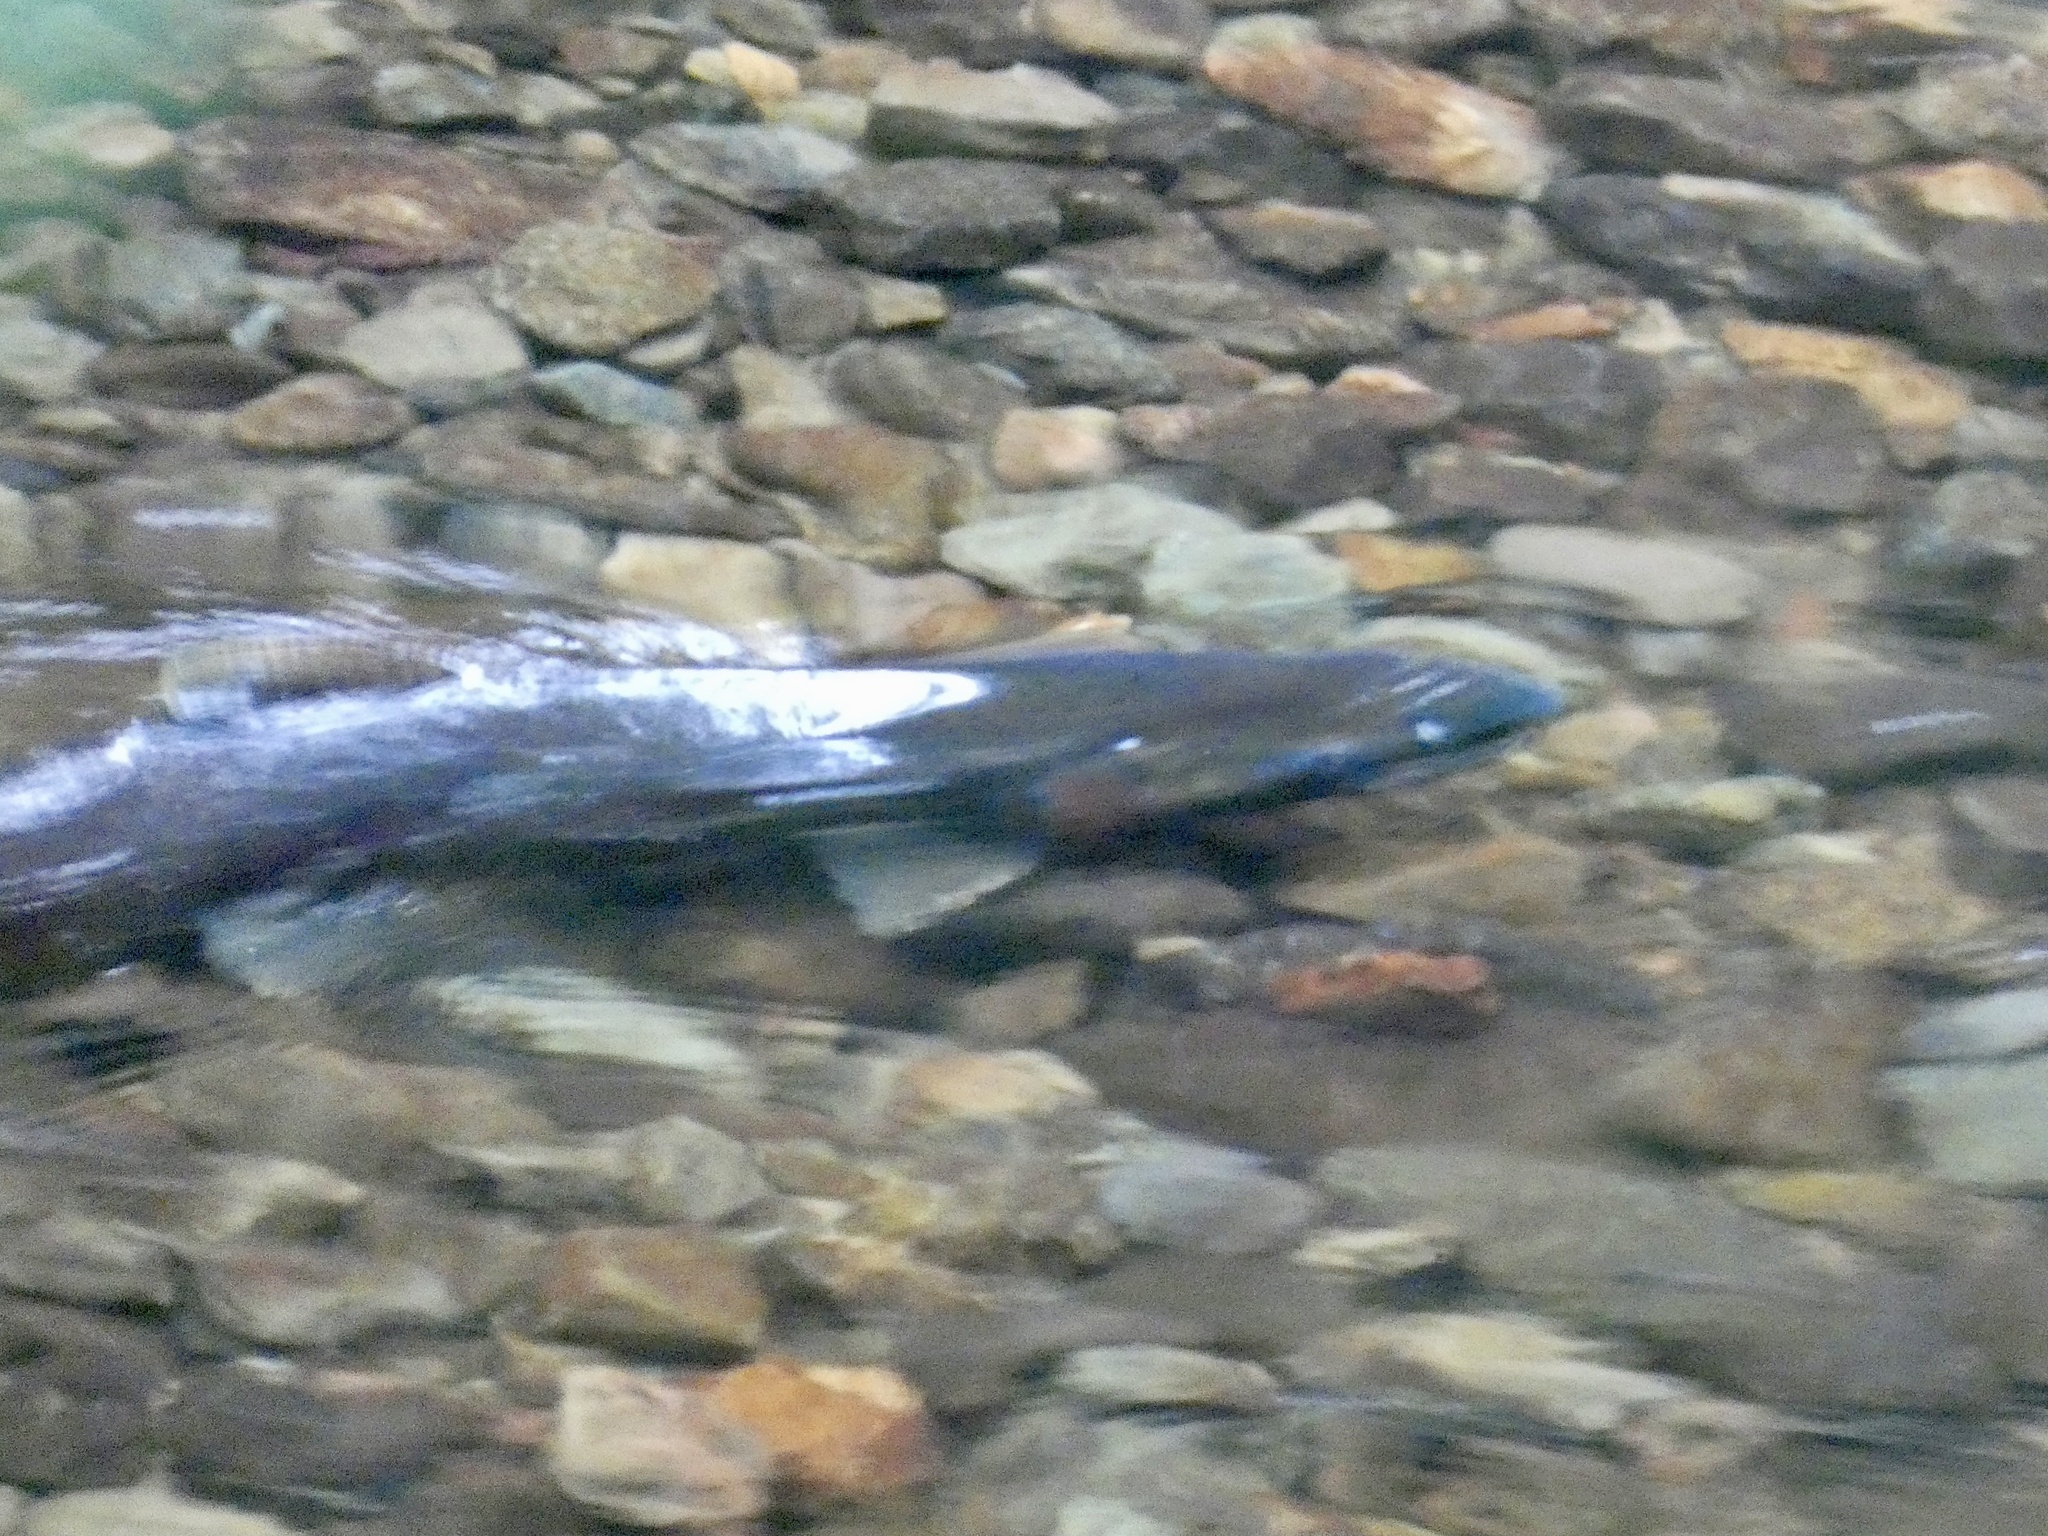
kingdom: Animalia
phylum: Chordata
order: Salmoniformes
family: Salmonidae
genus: Oncorhynchus
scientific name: Oncorhynchus kisutch
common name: Coho salmon
